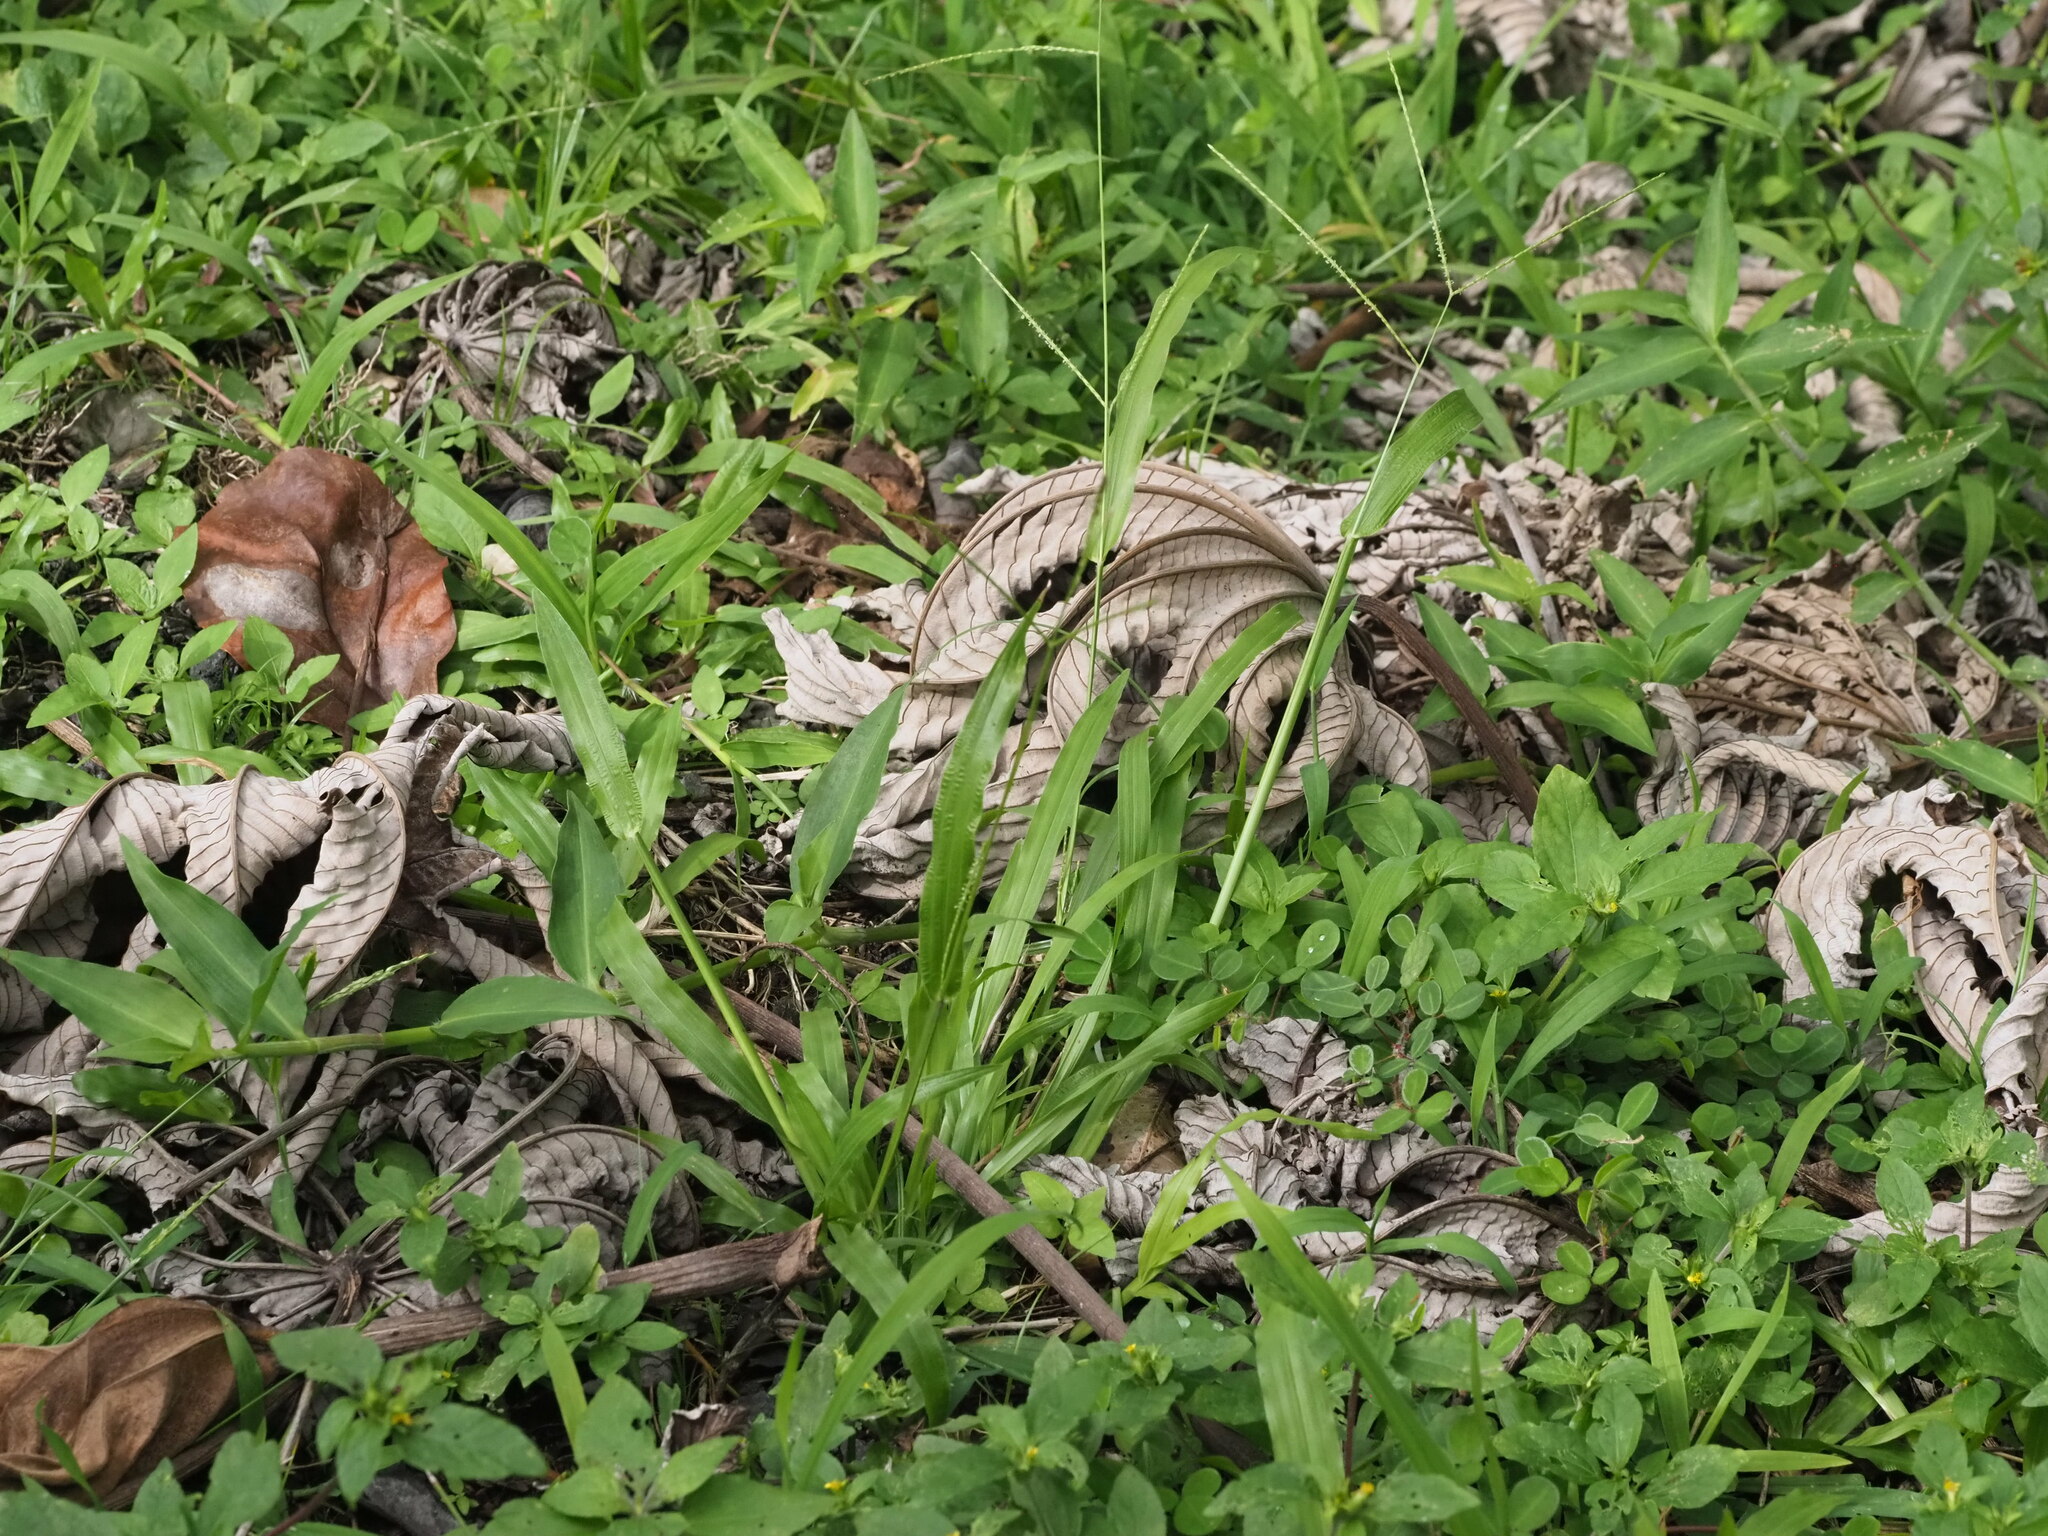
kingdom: Plantae
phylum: Tracheophyta
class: Liliopsida
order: Poales
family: Poaceae
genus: Axonopus
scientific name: Axonopus compressus
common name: American carpet grass
